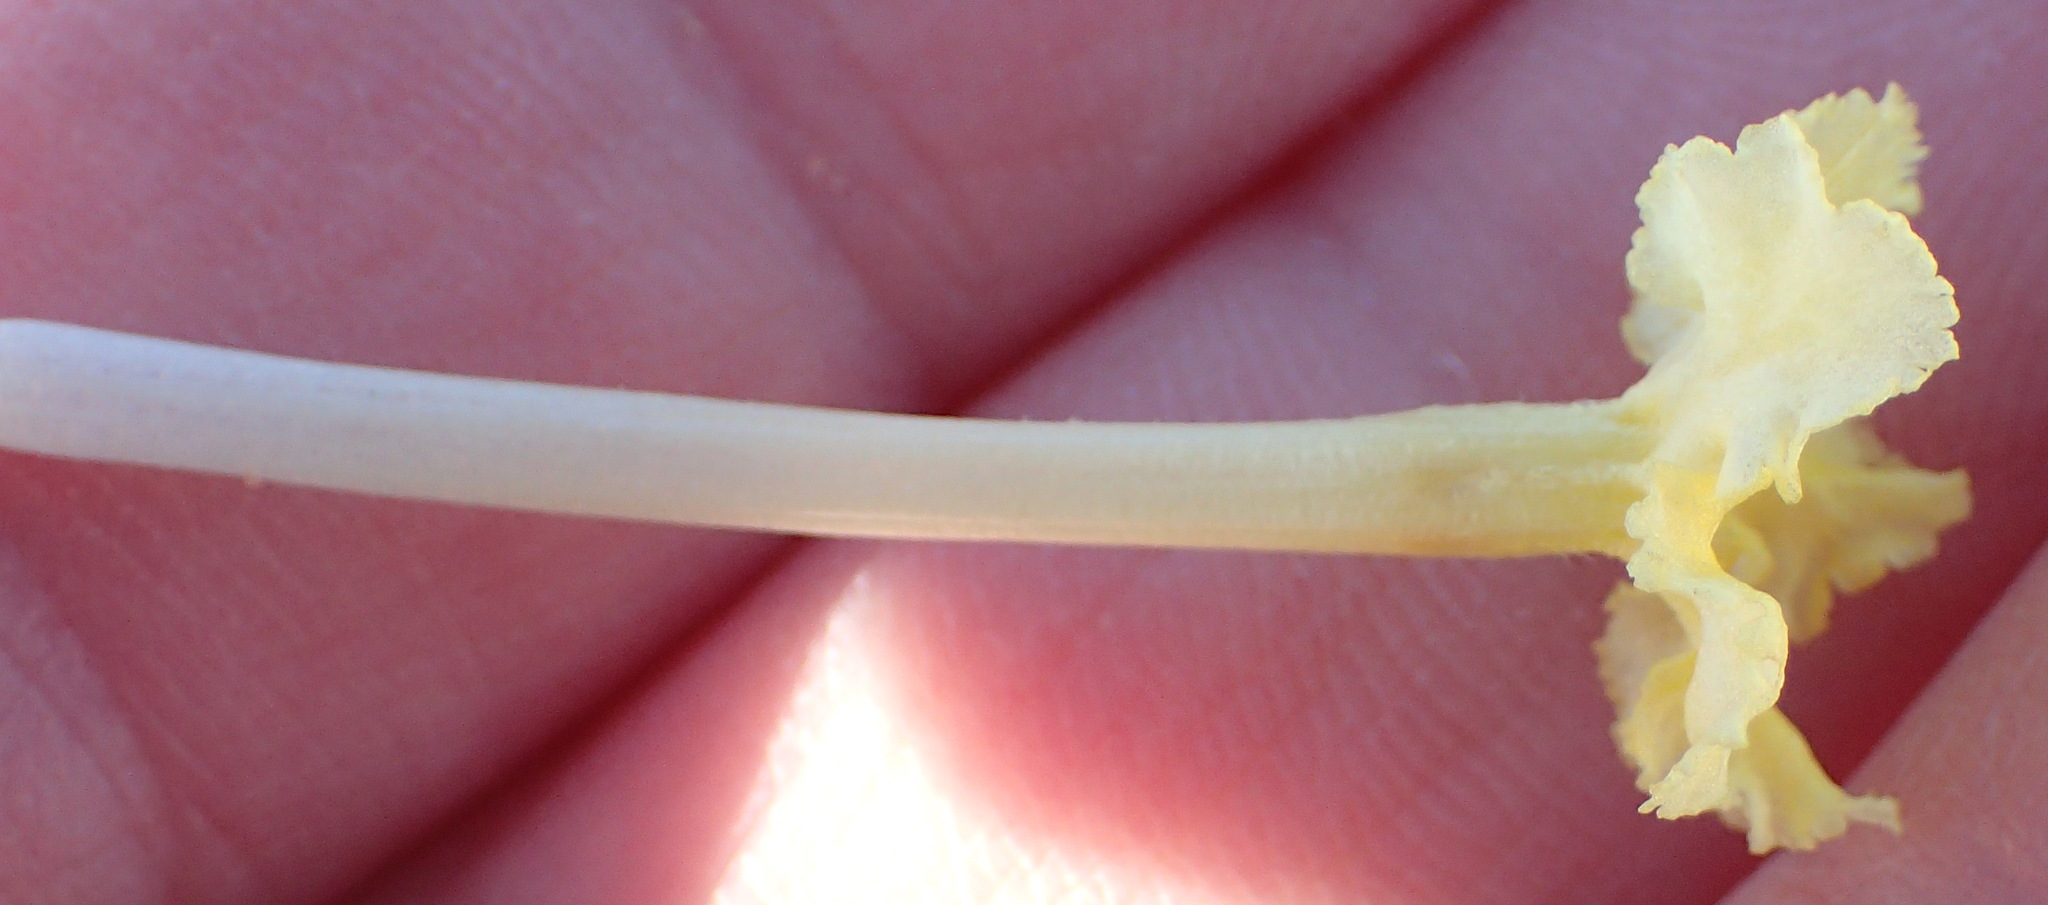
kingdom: Plantae
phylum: Tracheophyta
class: Magnoliopsida
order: Boraginales
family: Boraginaceae
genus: Lithospermum
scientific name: Lithospermum incisum
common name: Fringed gromwell
